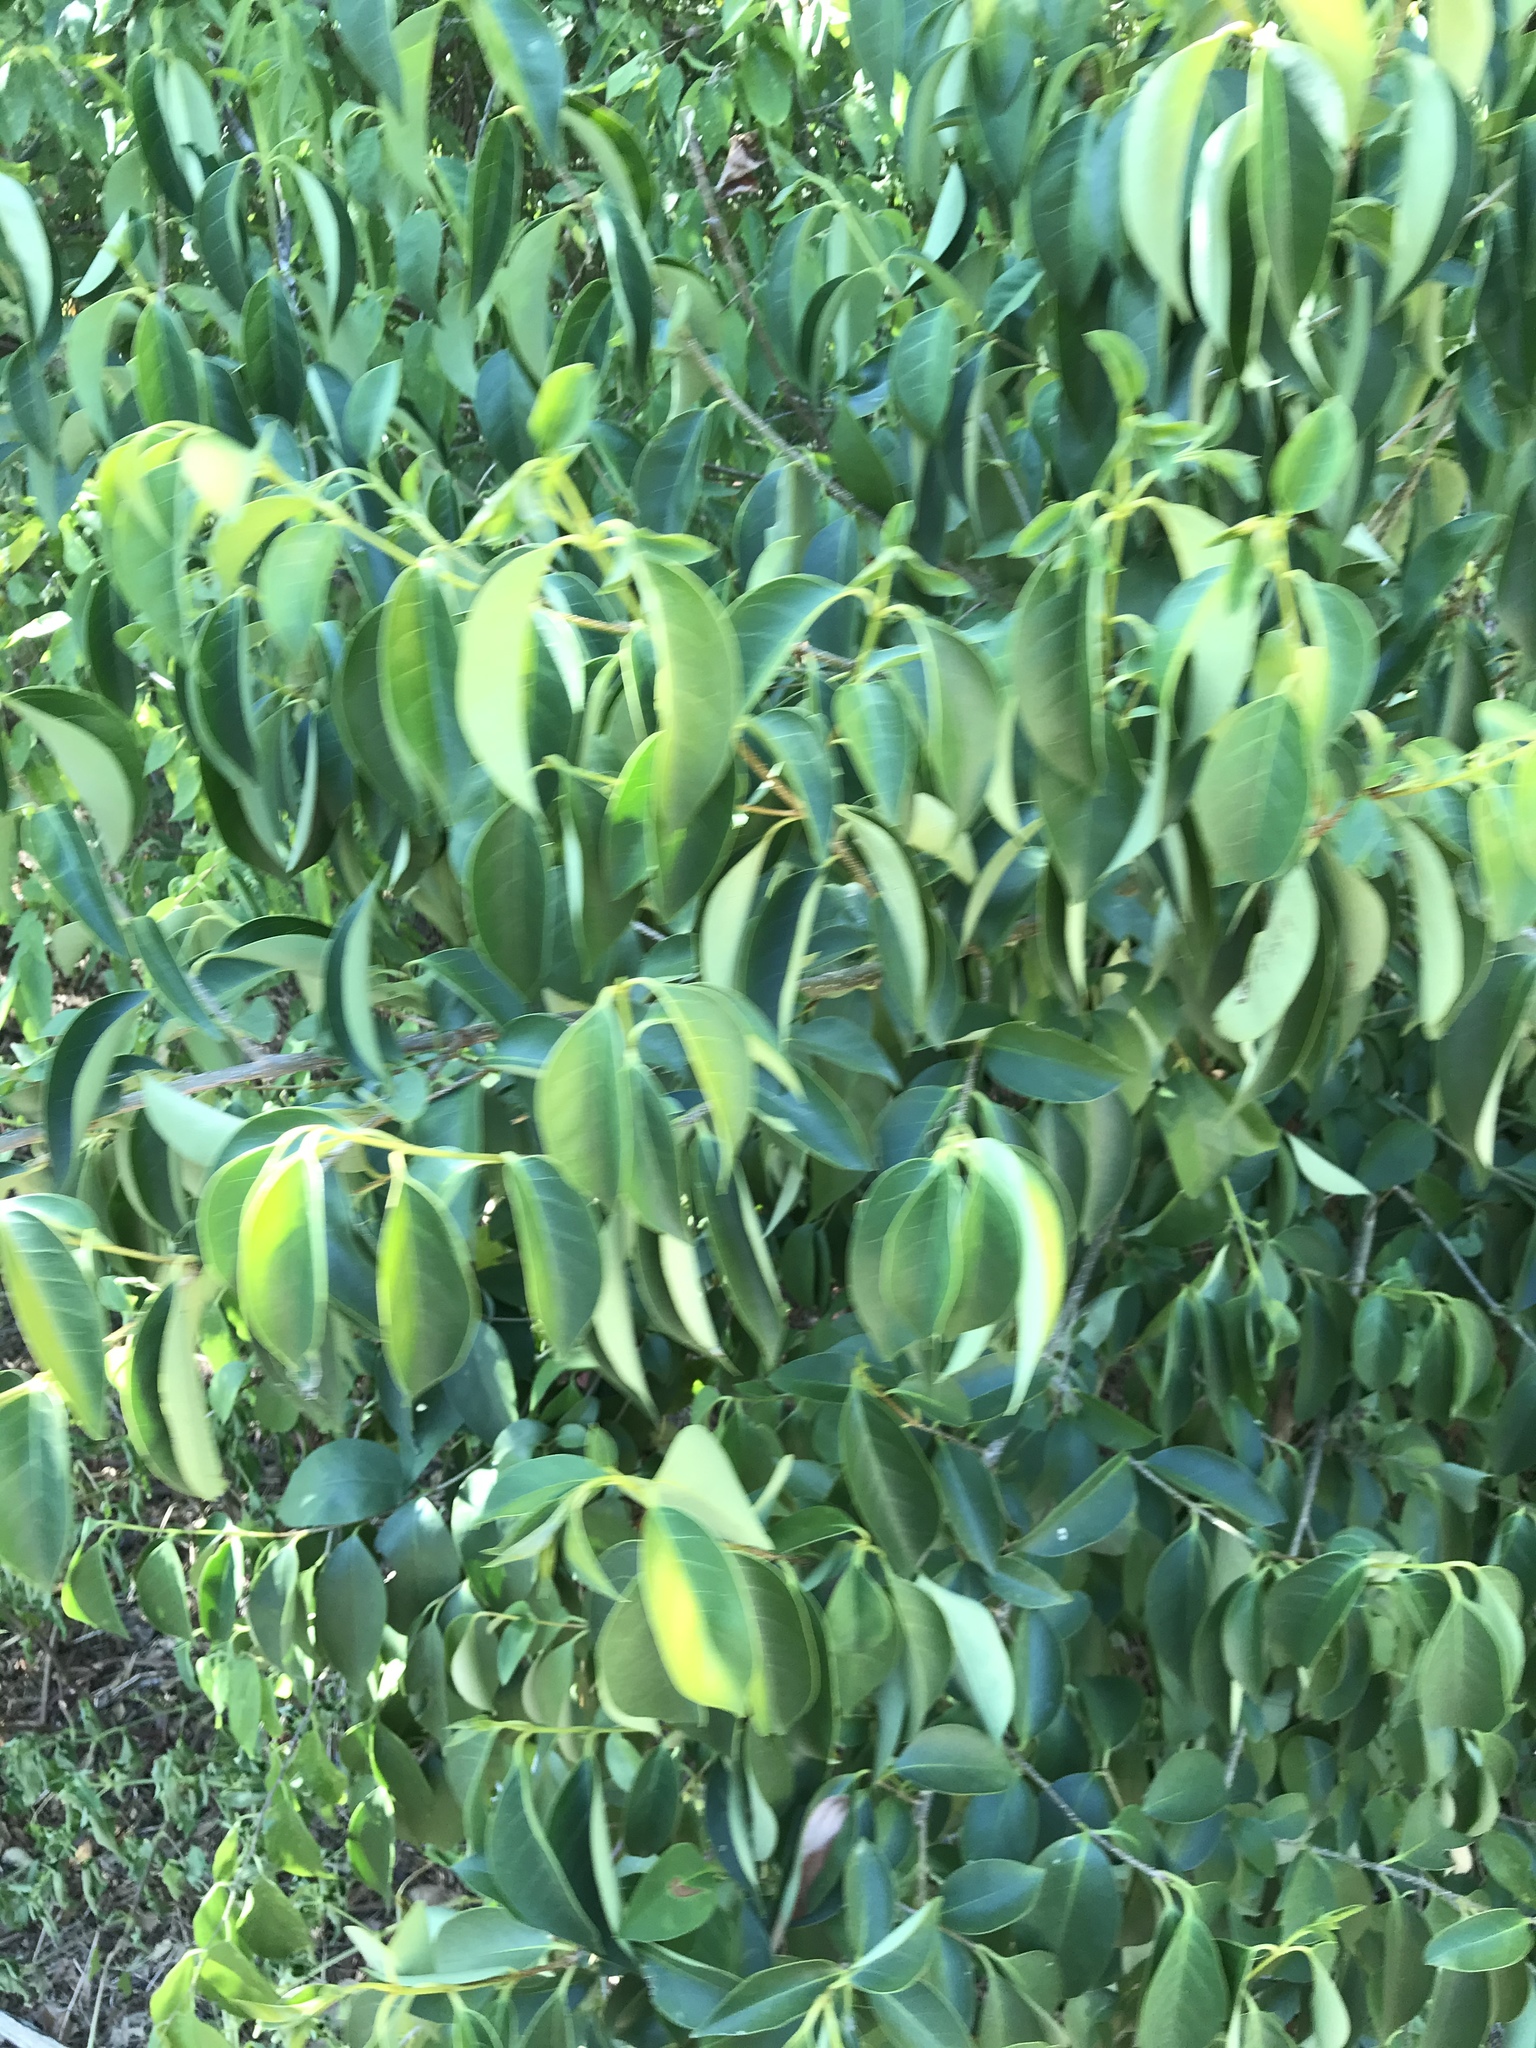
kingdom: Plantae
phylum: Tracheophyta
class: Magnoliopsida
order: Lamiales
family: Oleaceae
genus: Ligustrum
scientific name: Ligustrum lucidum
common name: Glossy privet
